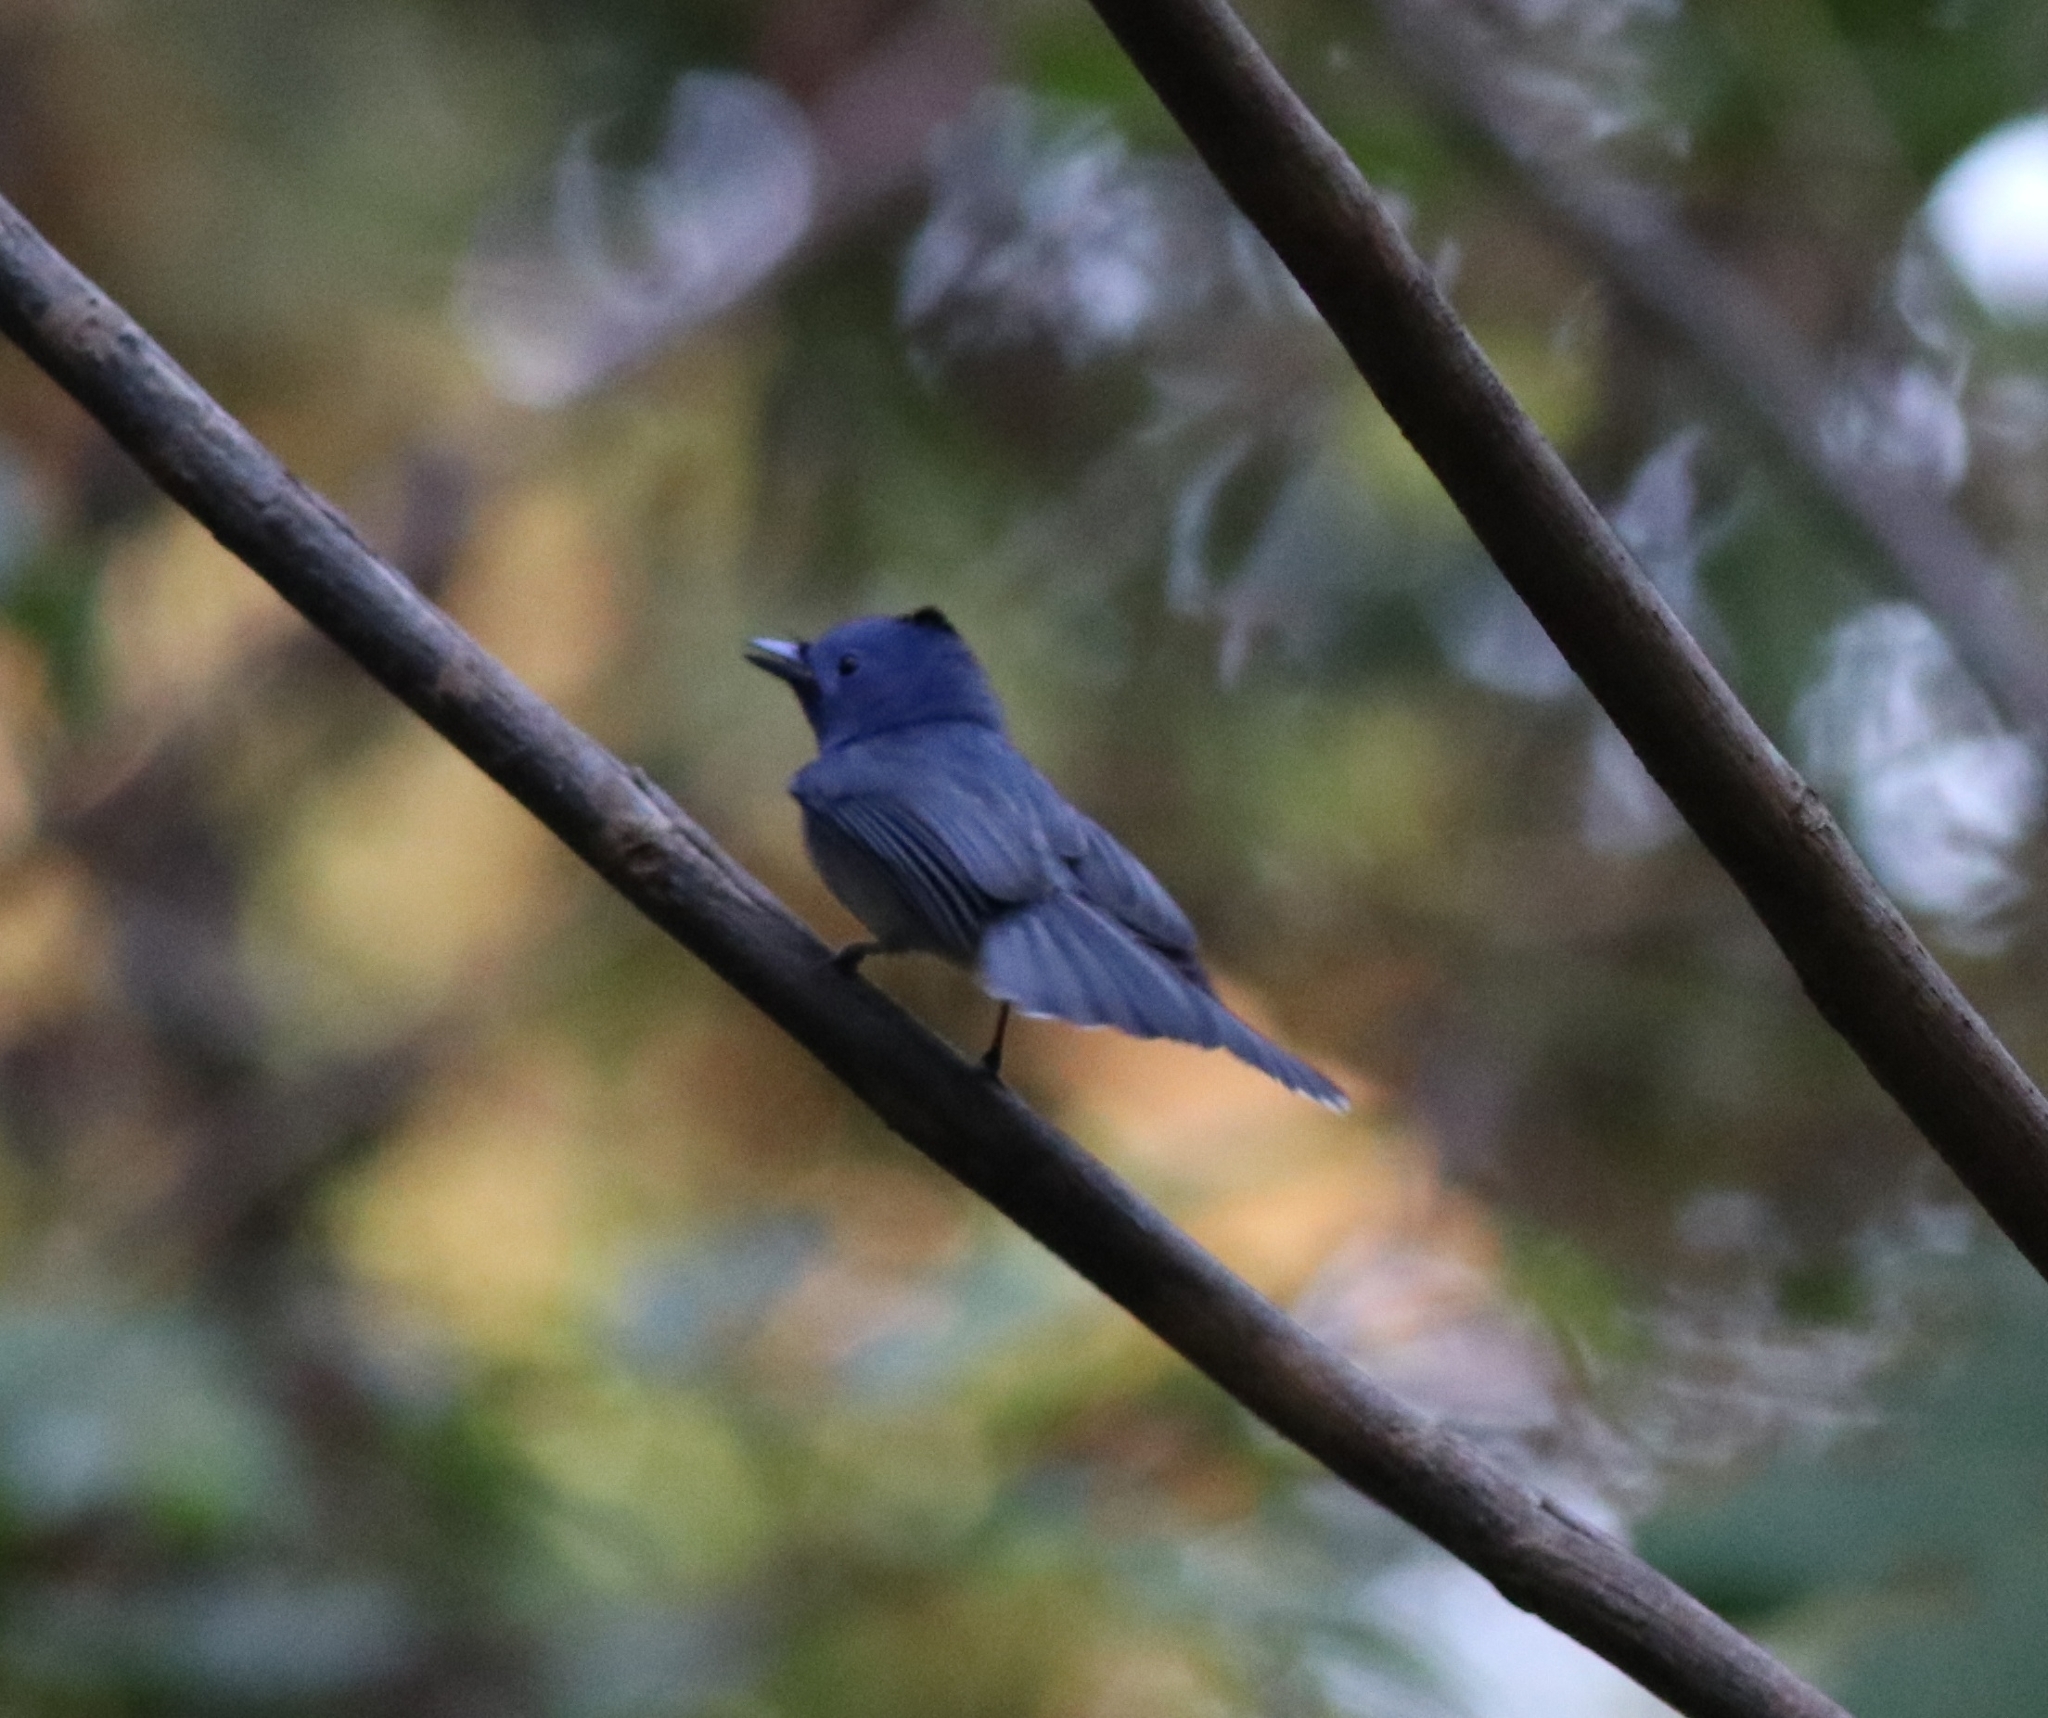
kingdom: Animalia
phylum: Chordata
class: Aves
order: Passeriformes
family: Monarchidae
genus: Hypothymis
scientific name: Hypothymis azurea
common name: Black-naped monarch
